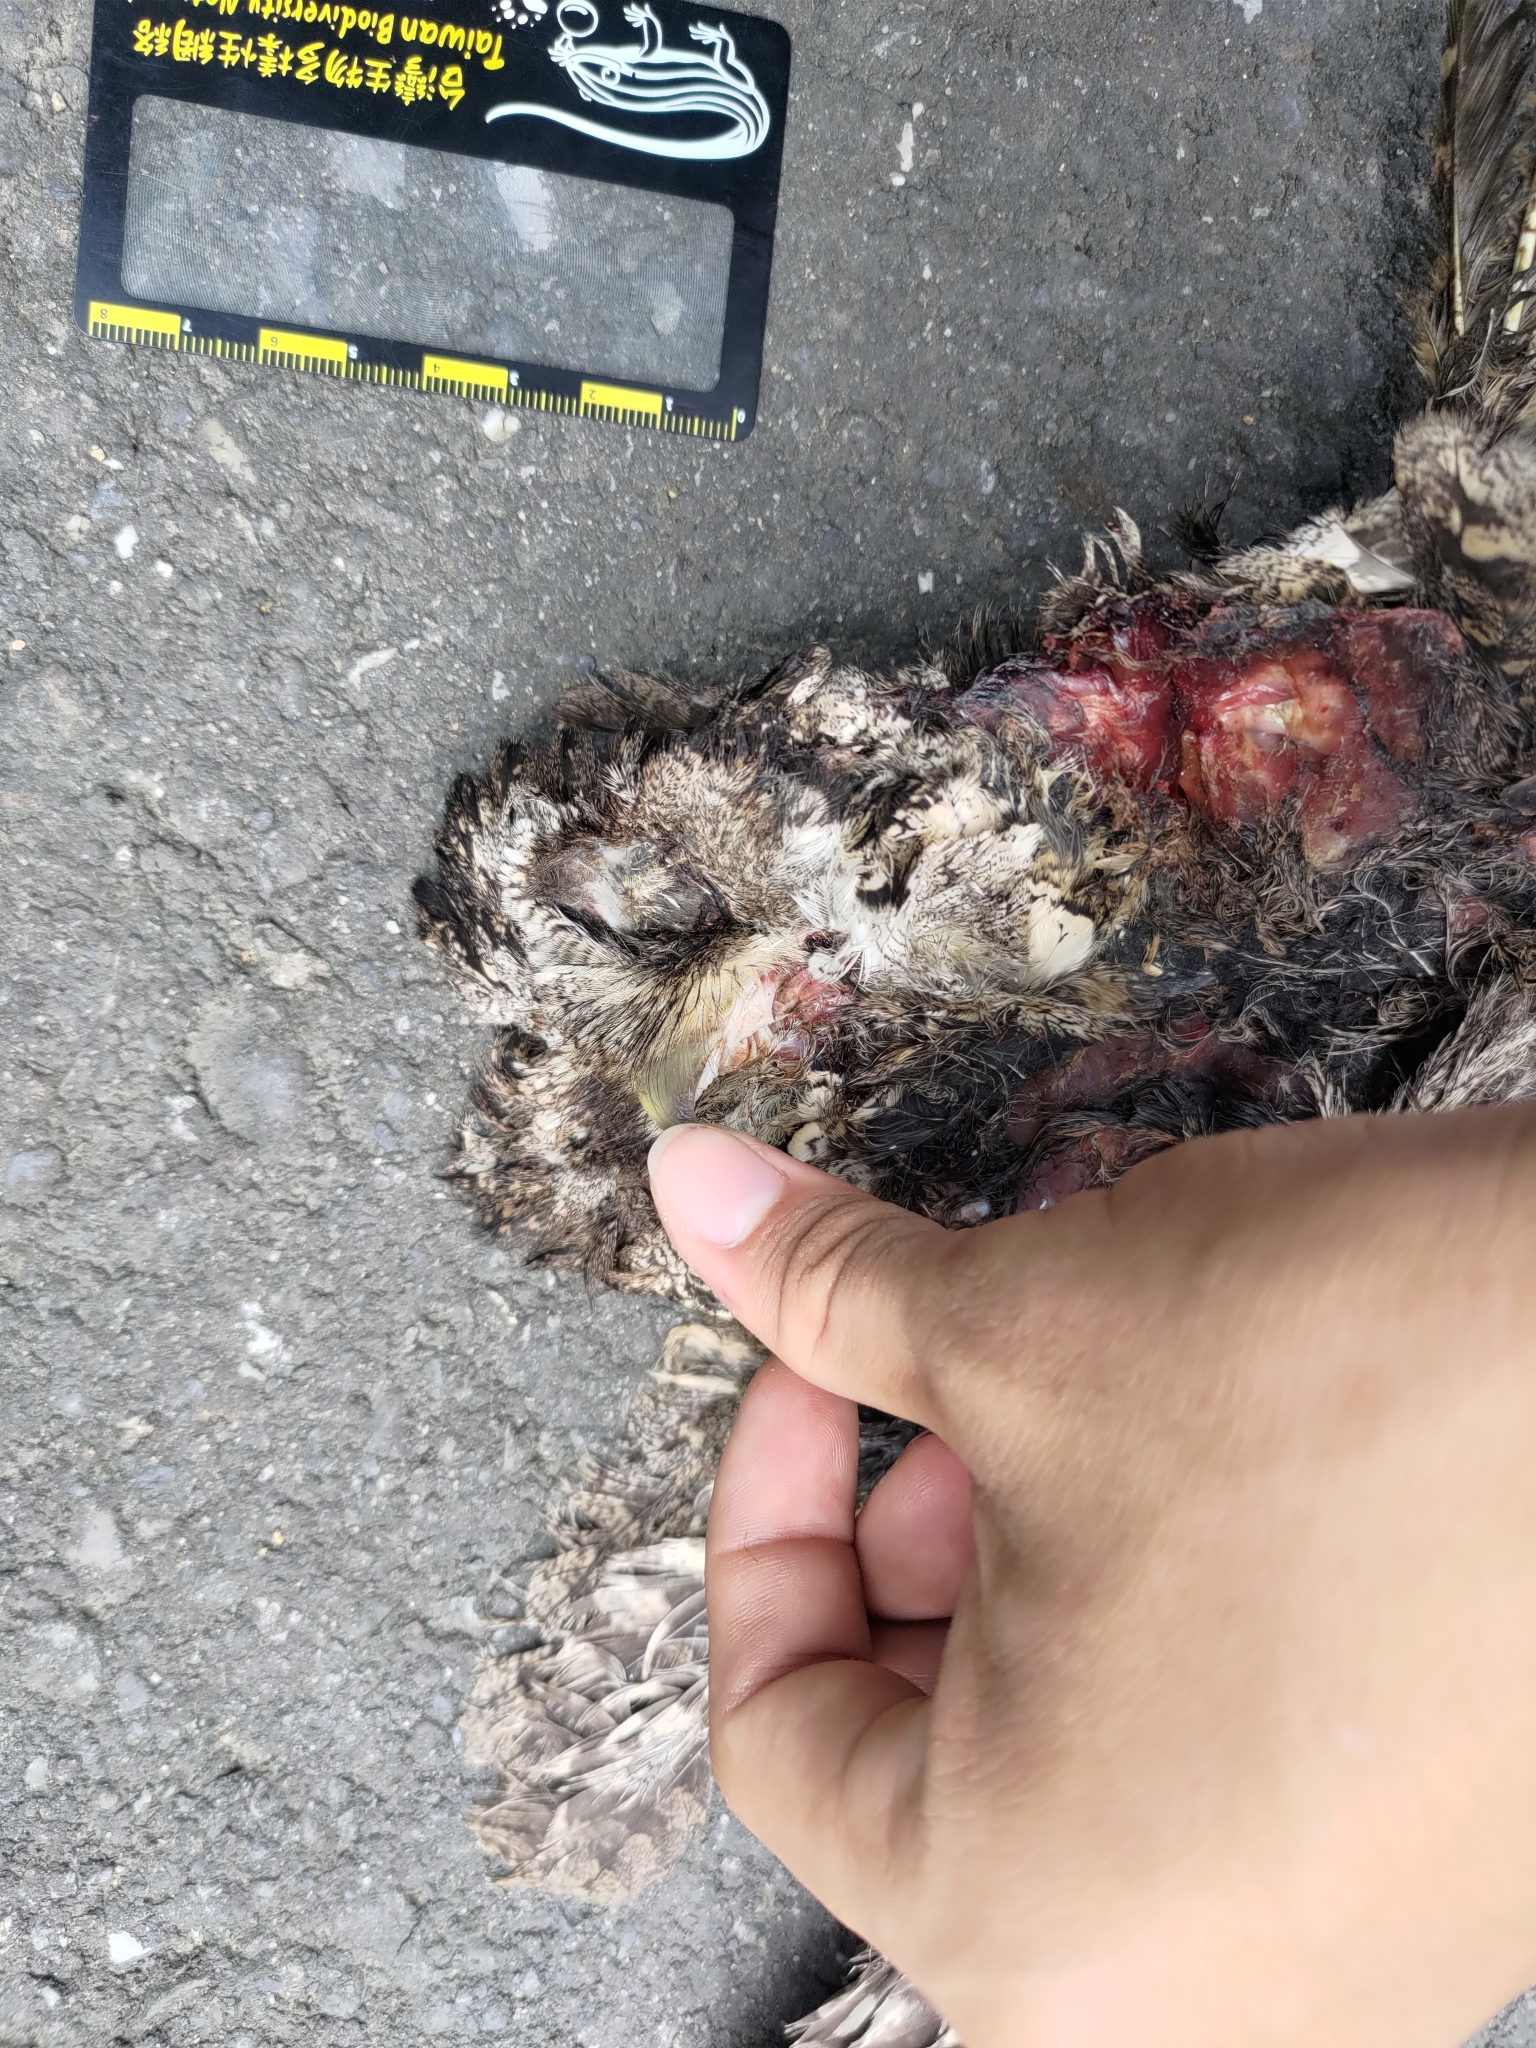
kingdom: Animalia
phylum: Chordata
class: Aves
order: Strigiformes
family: Strigidae
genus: Otus
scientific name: Otus lettia
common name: Collared scops owl
